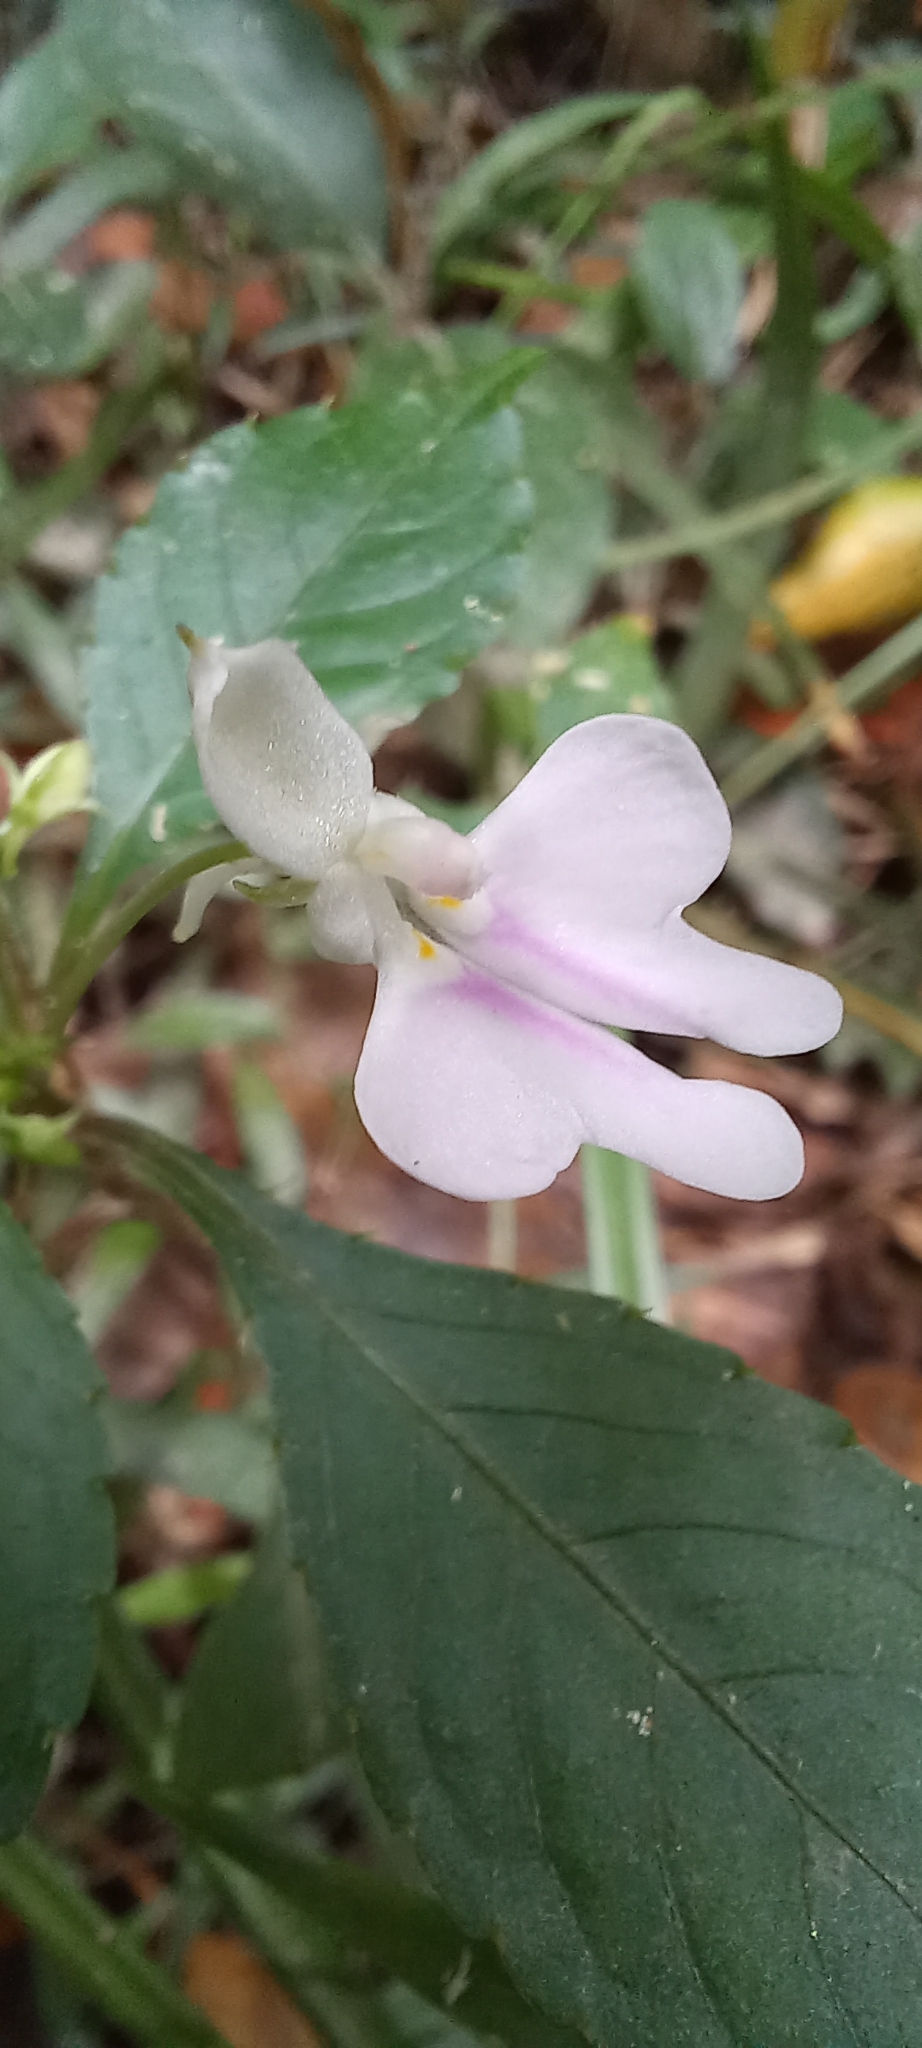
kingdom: Plantae
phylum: Tracheophyta
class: Magnoliopsida
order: Ericales
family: Balsaminaceae
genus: Impatiens
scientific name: Impatiens hochstetteri
